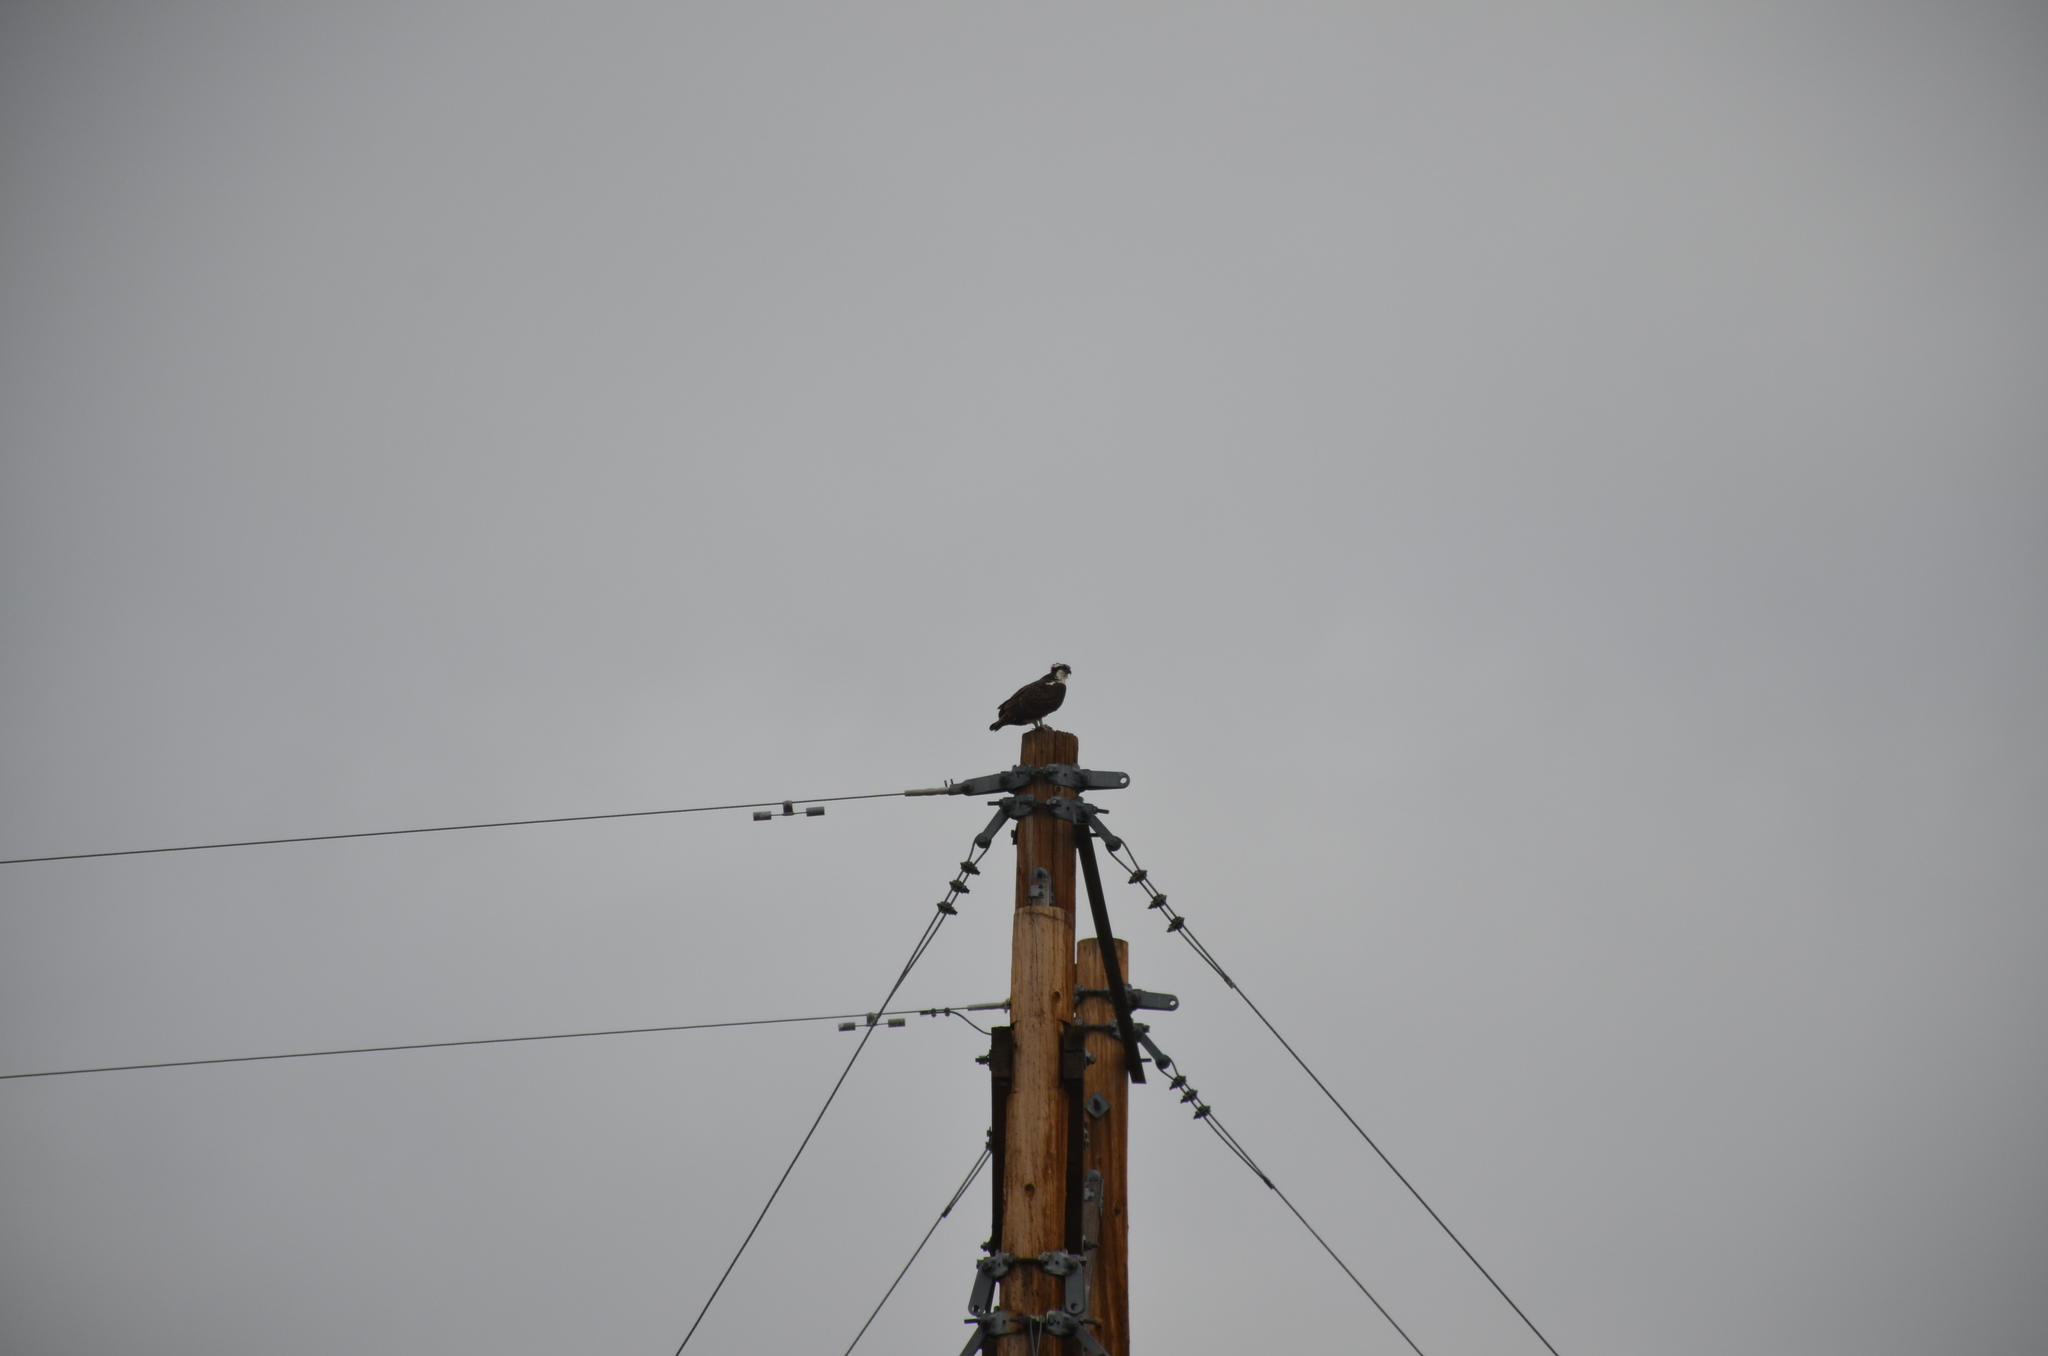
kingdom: Animalia
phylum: Chordata
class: Aves
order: Accipitriformes
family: Pandionidae
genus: Pandion
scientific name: Pandion haliaetus
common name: Osprey
